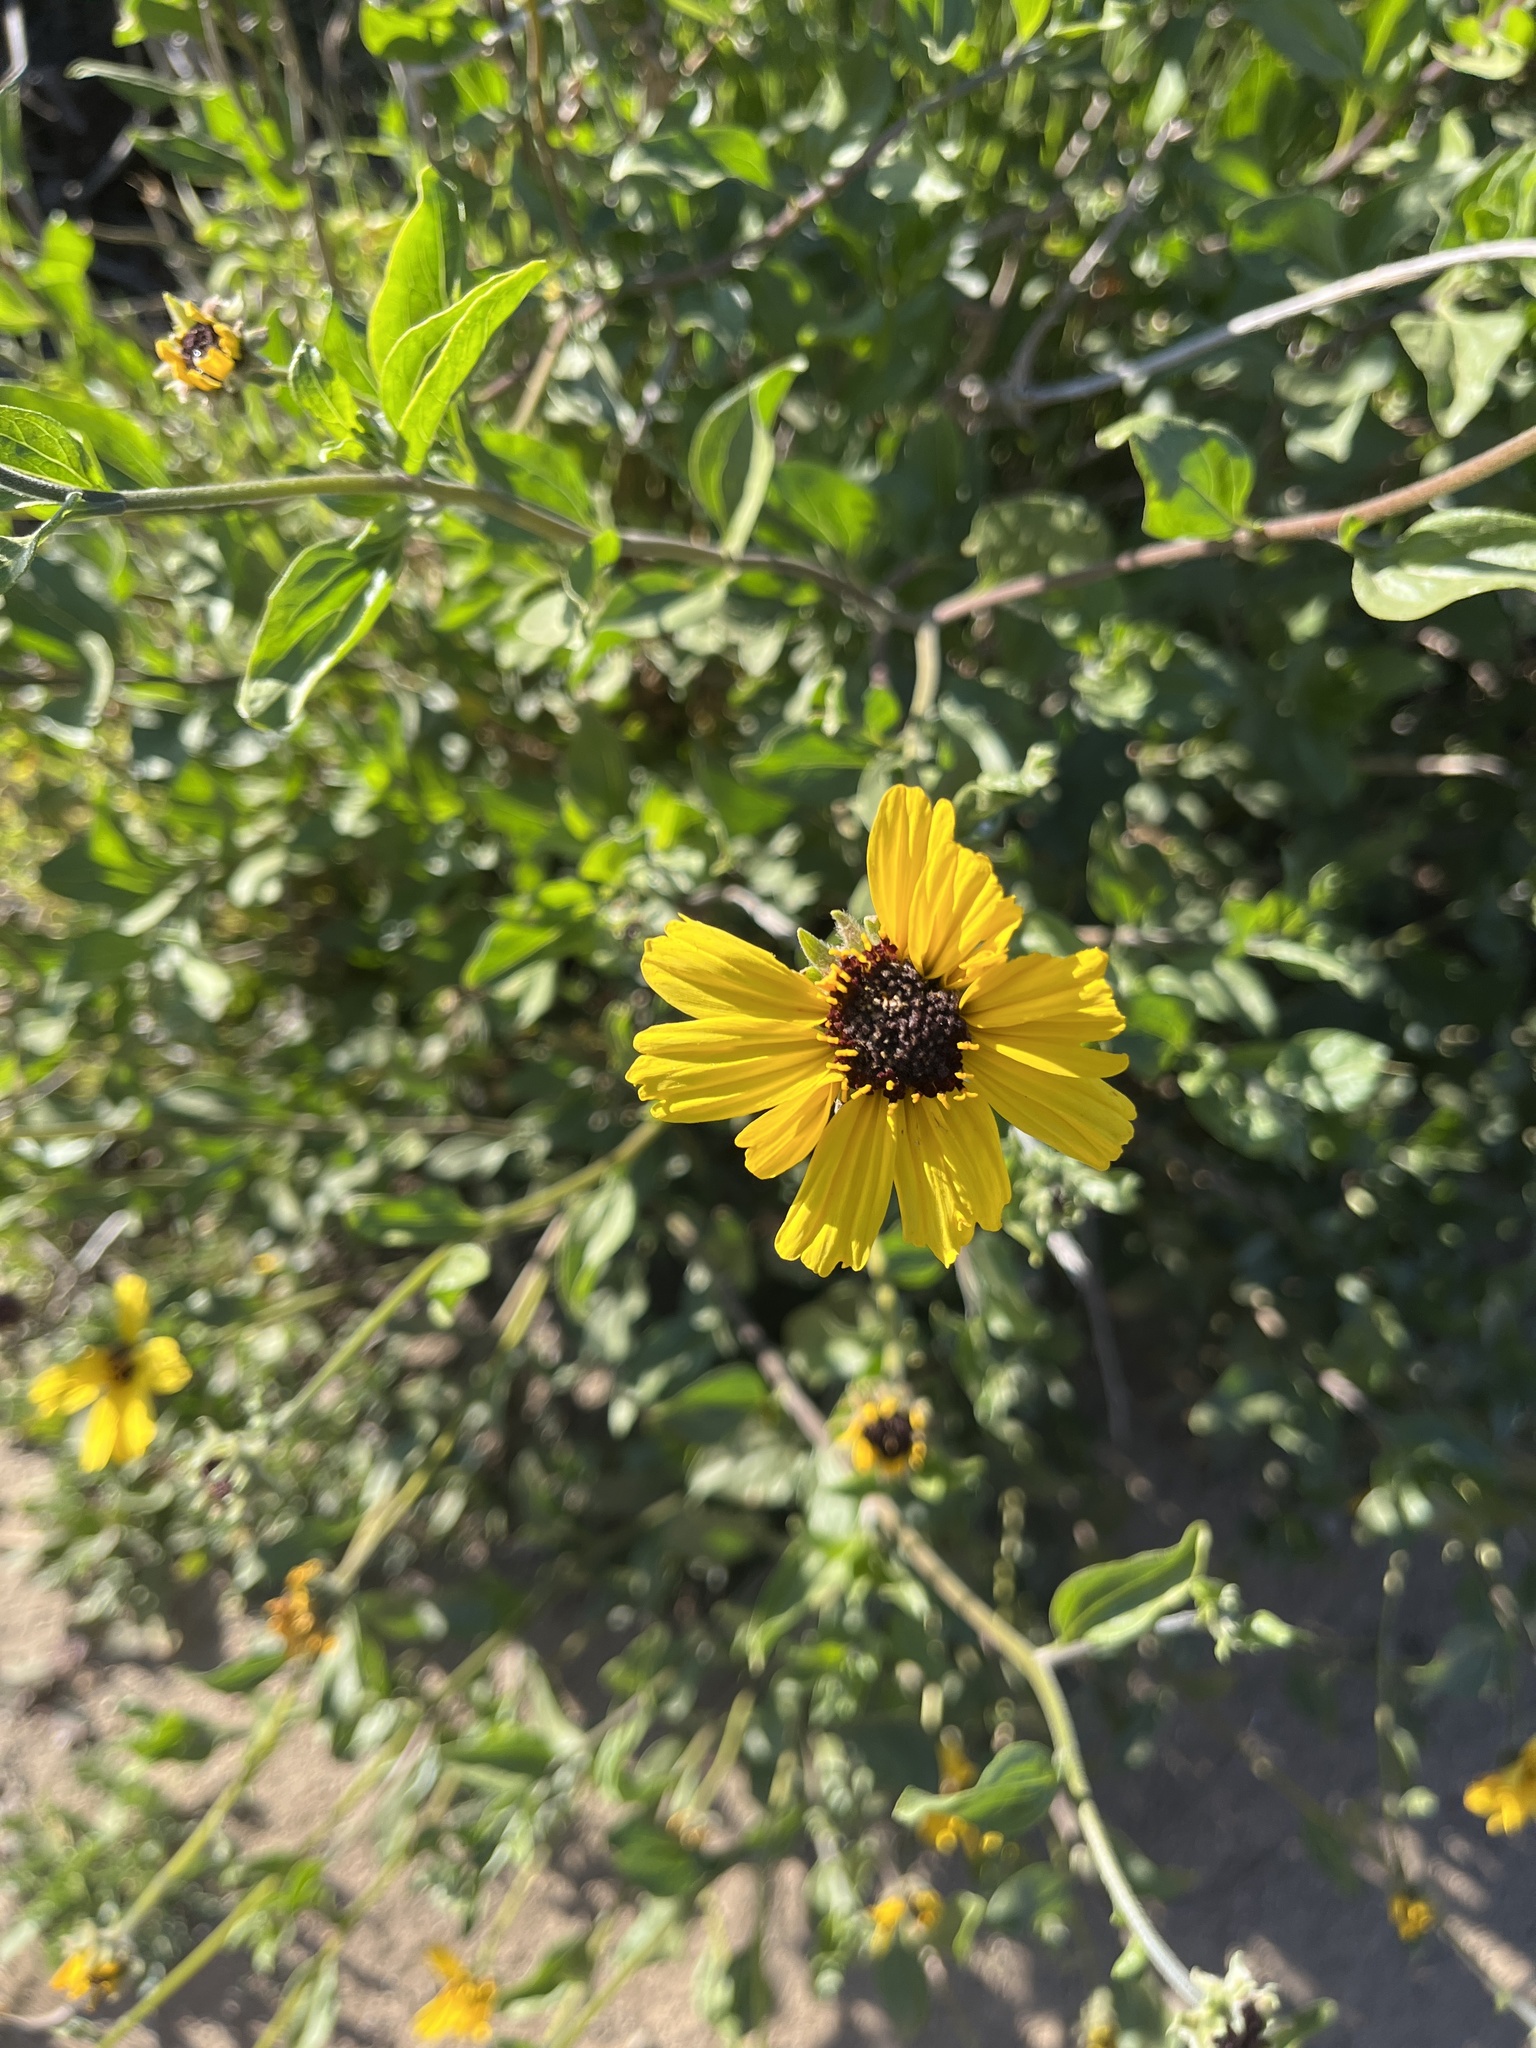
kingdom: Plantae
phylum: Tracheophyta
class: Magnoliopsida
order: Asterales
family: Asteraceae
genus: Encelia
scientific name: Encelia californica
